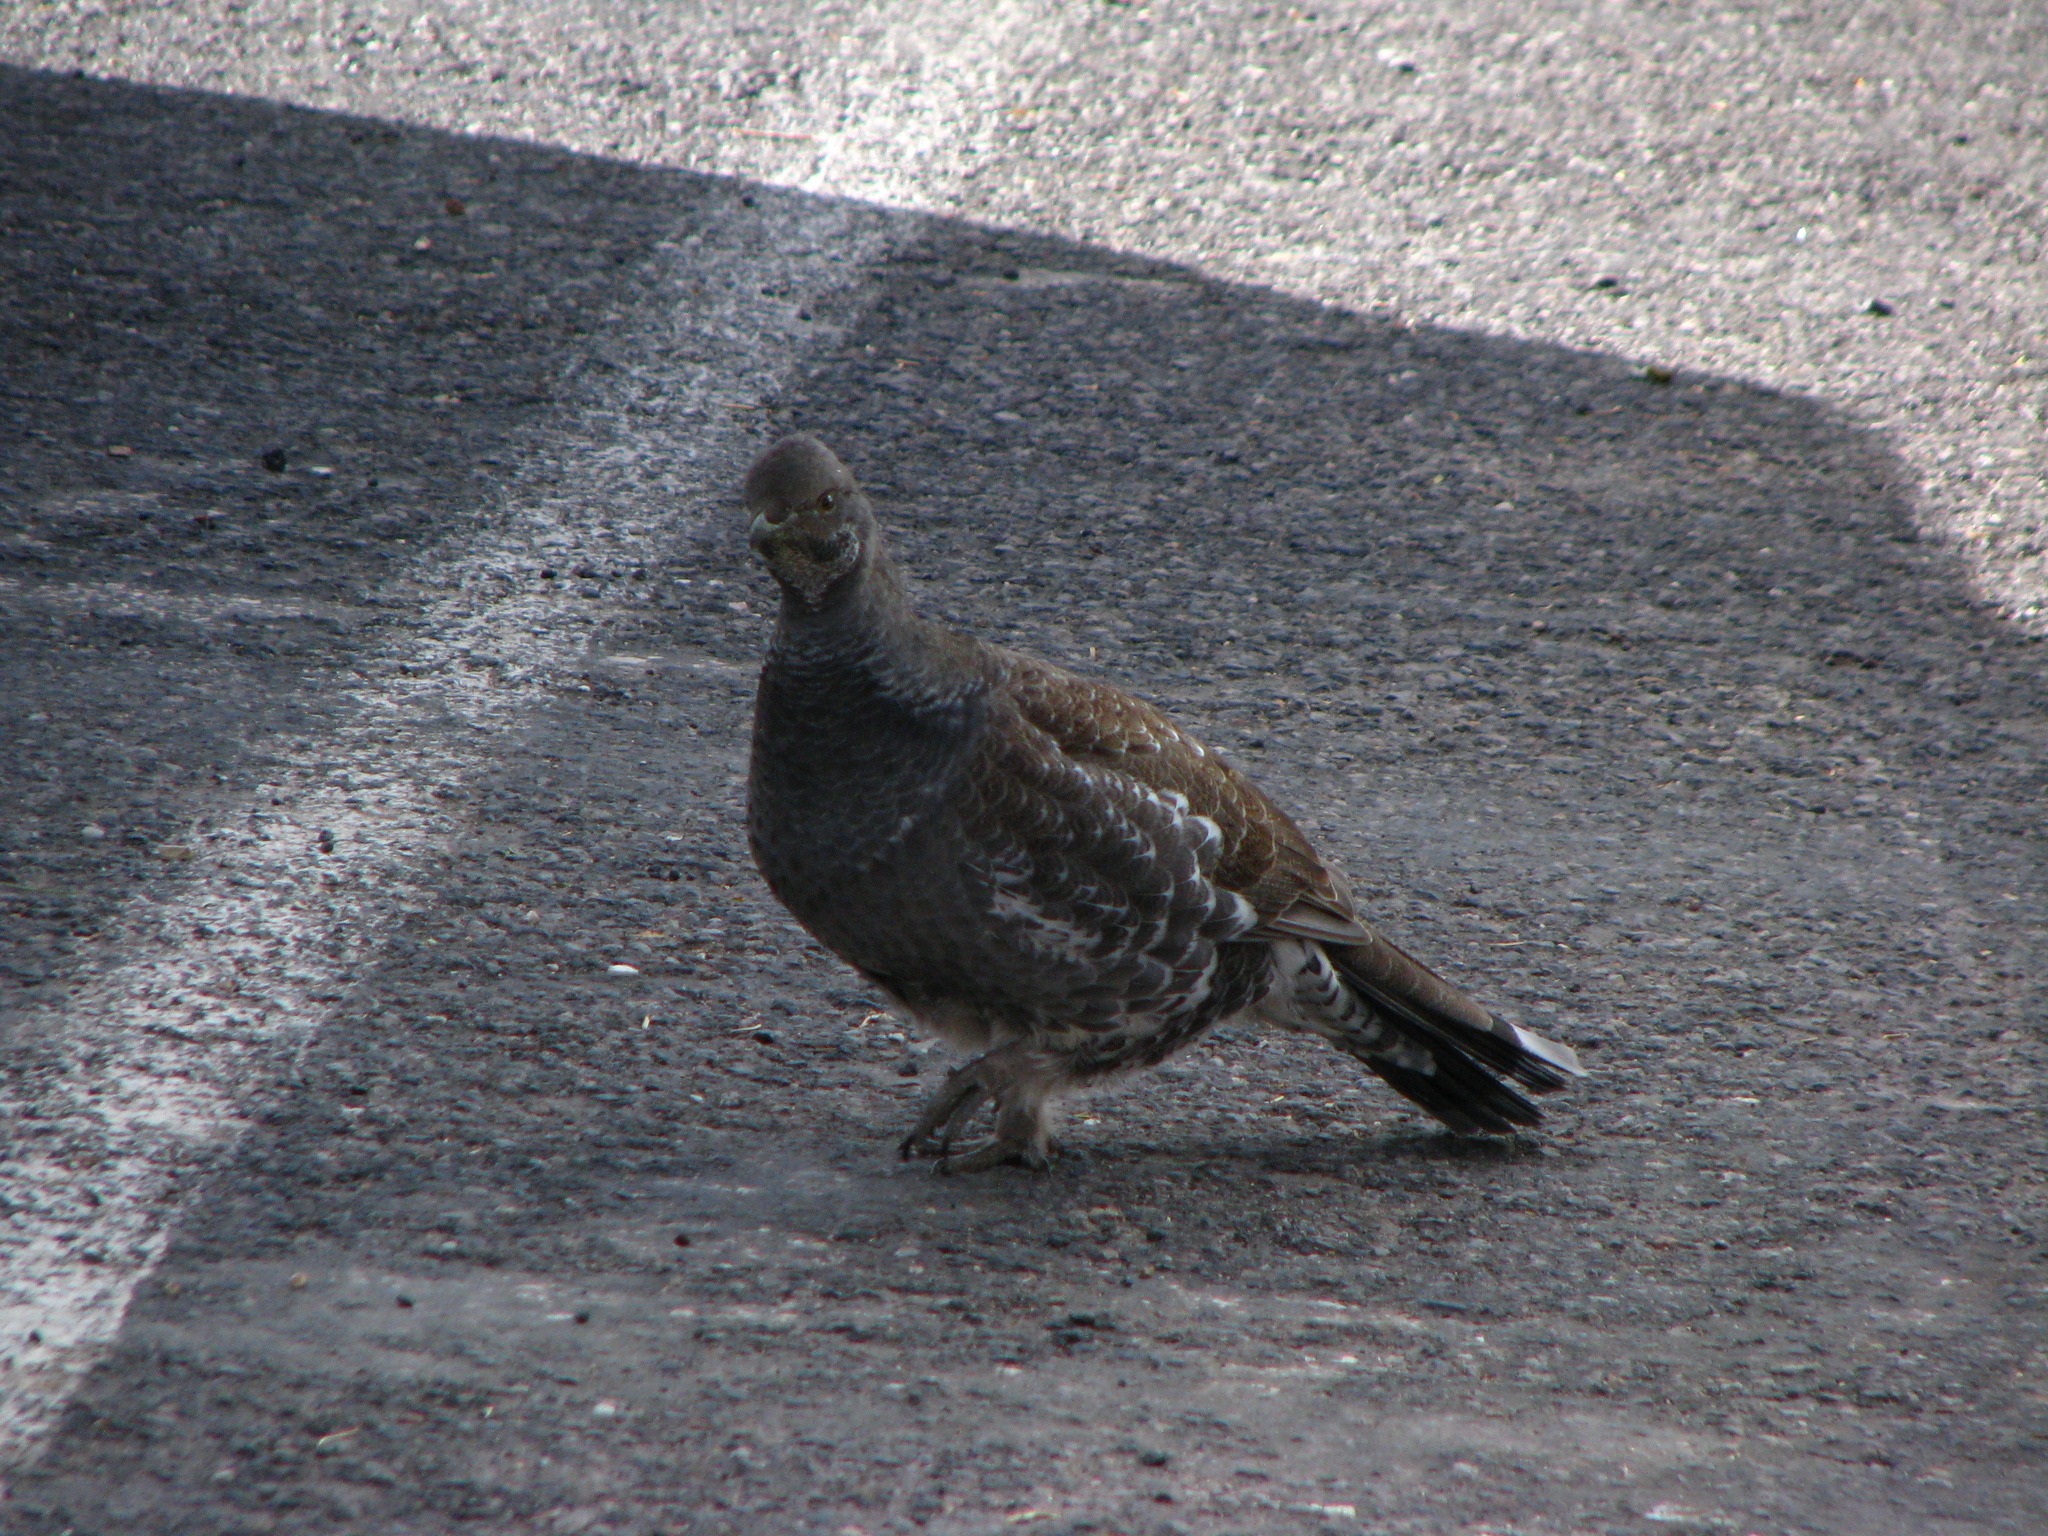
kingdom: Animalia
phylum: Chordata
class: Aves
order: Galliformes
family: Phasianidae
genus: Dendragapus
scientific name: Dendragapus obscurus
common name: Dusky grouse
